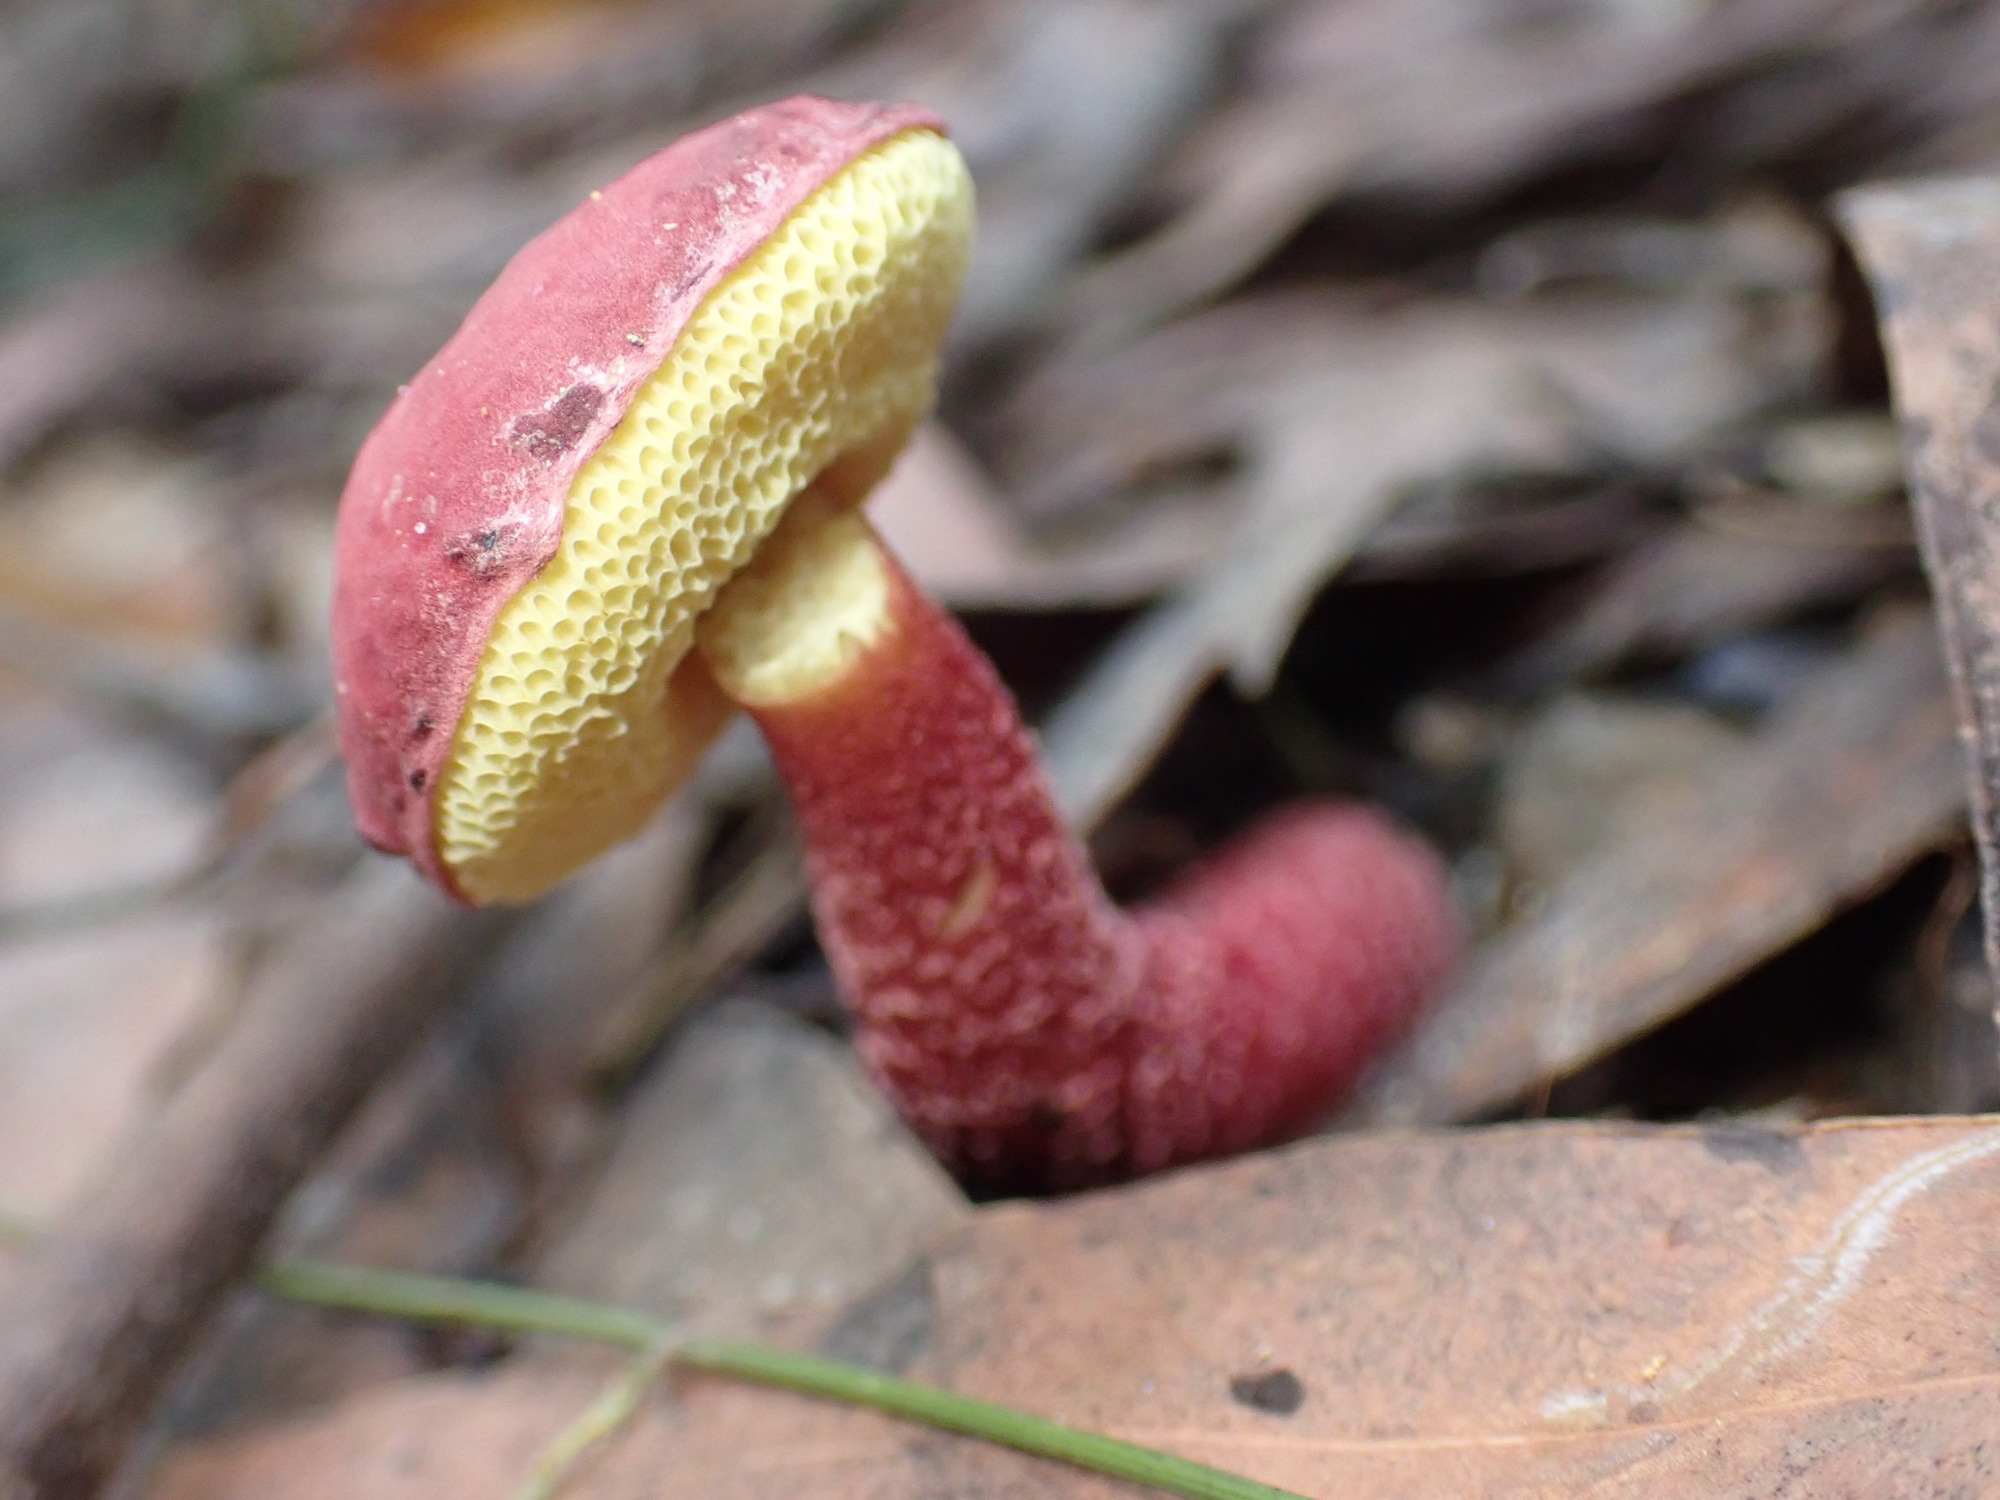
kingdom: Fungi
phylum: Basidiomycota
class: Agaricomycetes
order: Boletales
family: Boletaceae
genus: Boletellus
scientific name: Boletellus obscurecoccineus
